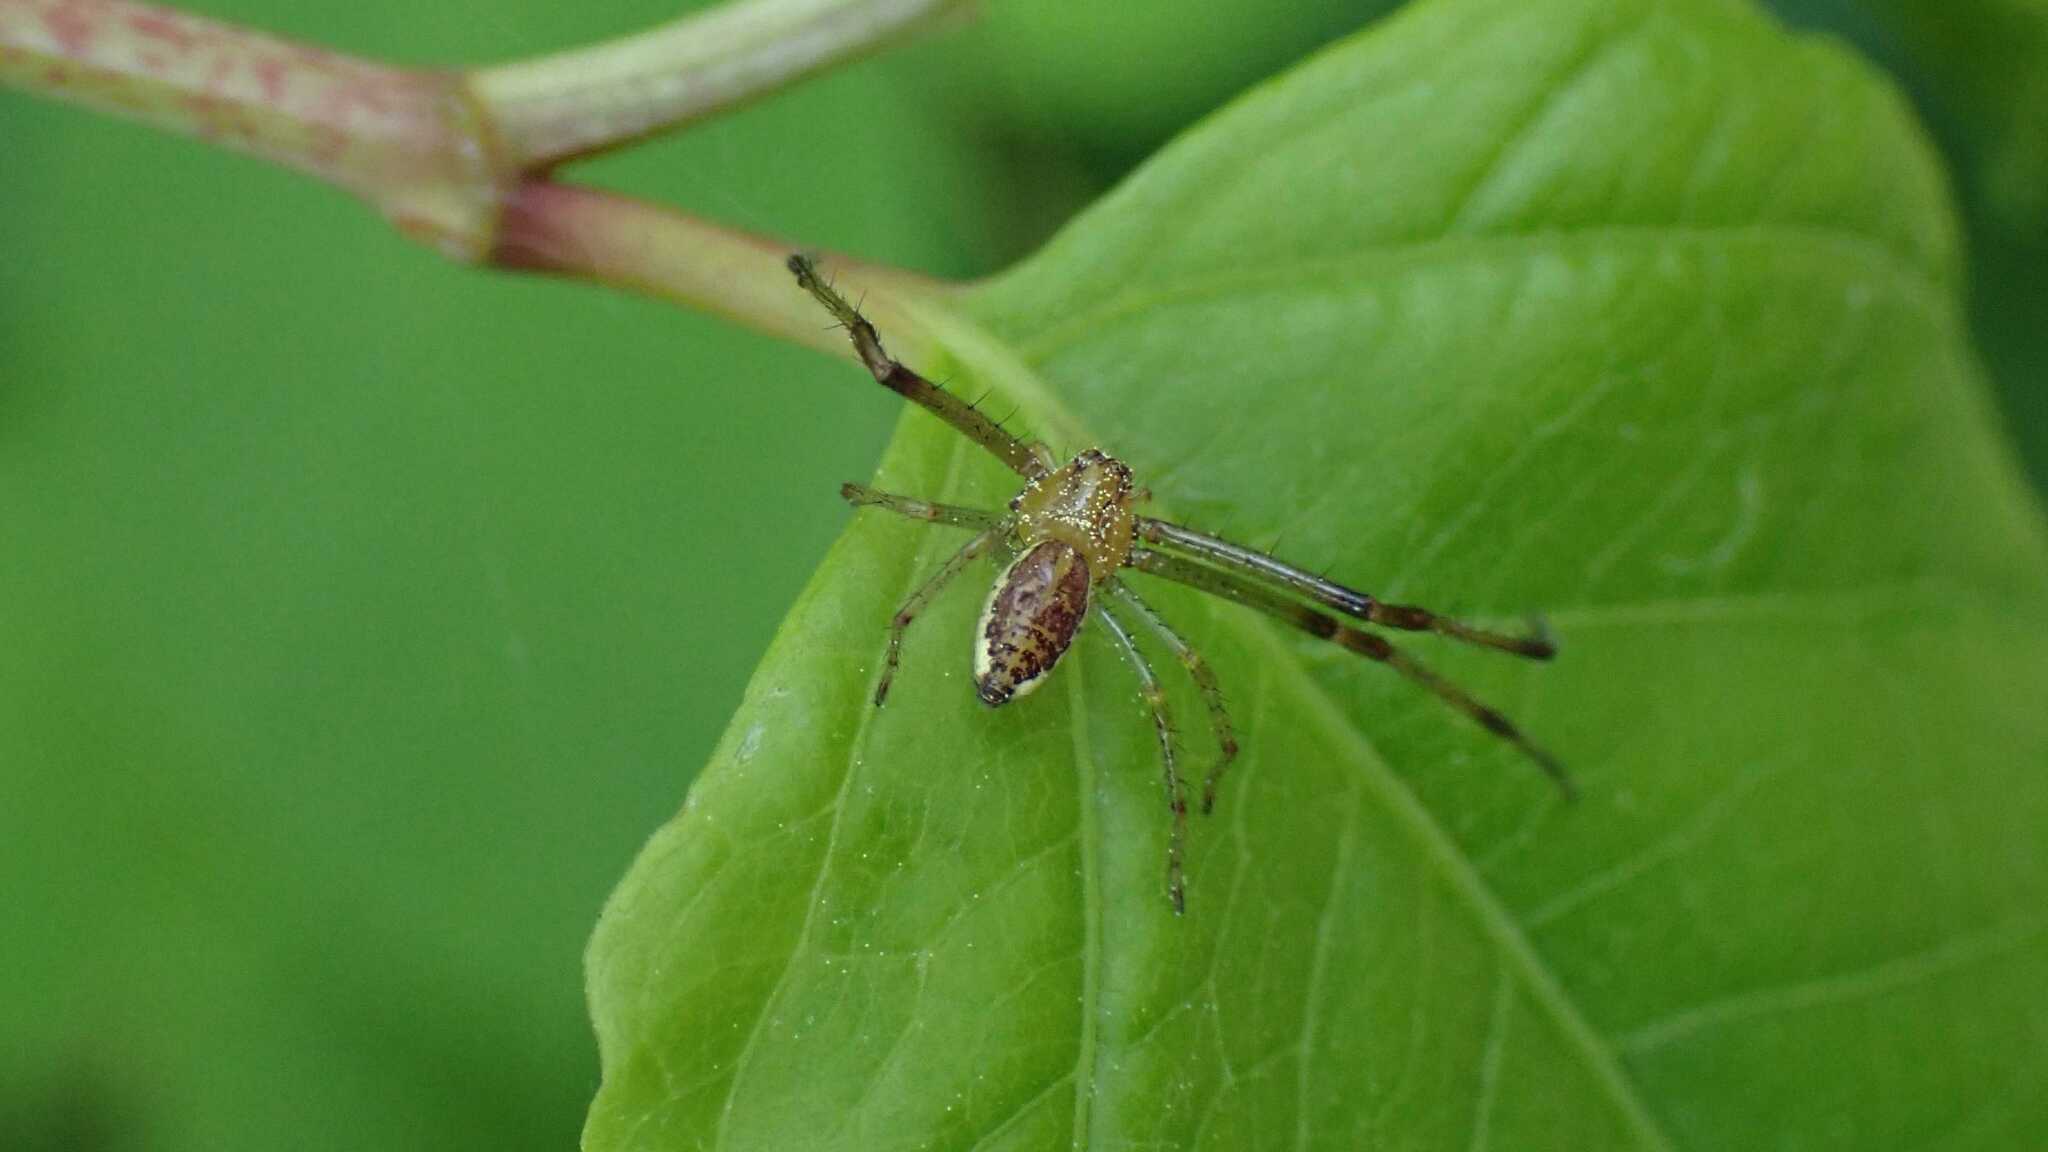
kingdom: Animalia
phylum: Arthropoda
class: Arachnida
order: Araneae
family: Thomisidae
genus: Diaea
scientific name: Diaea dorsata
